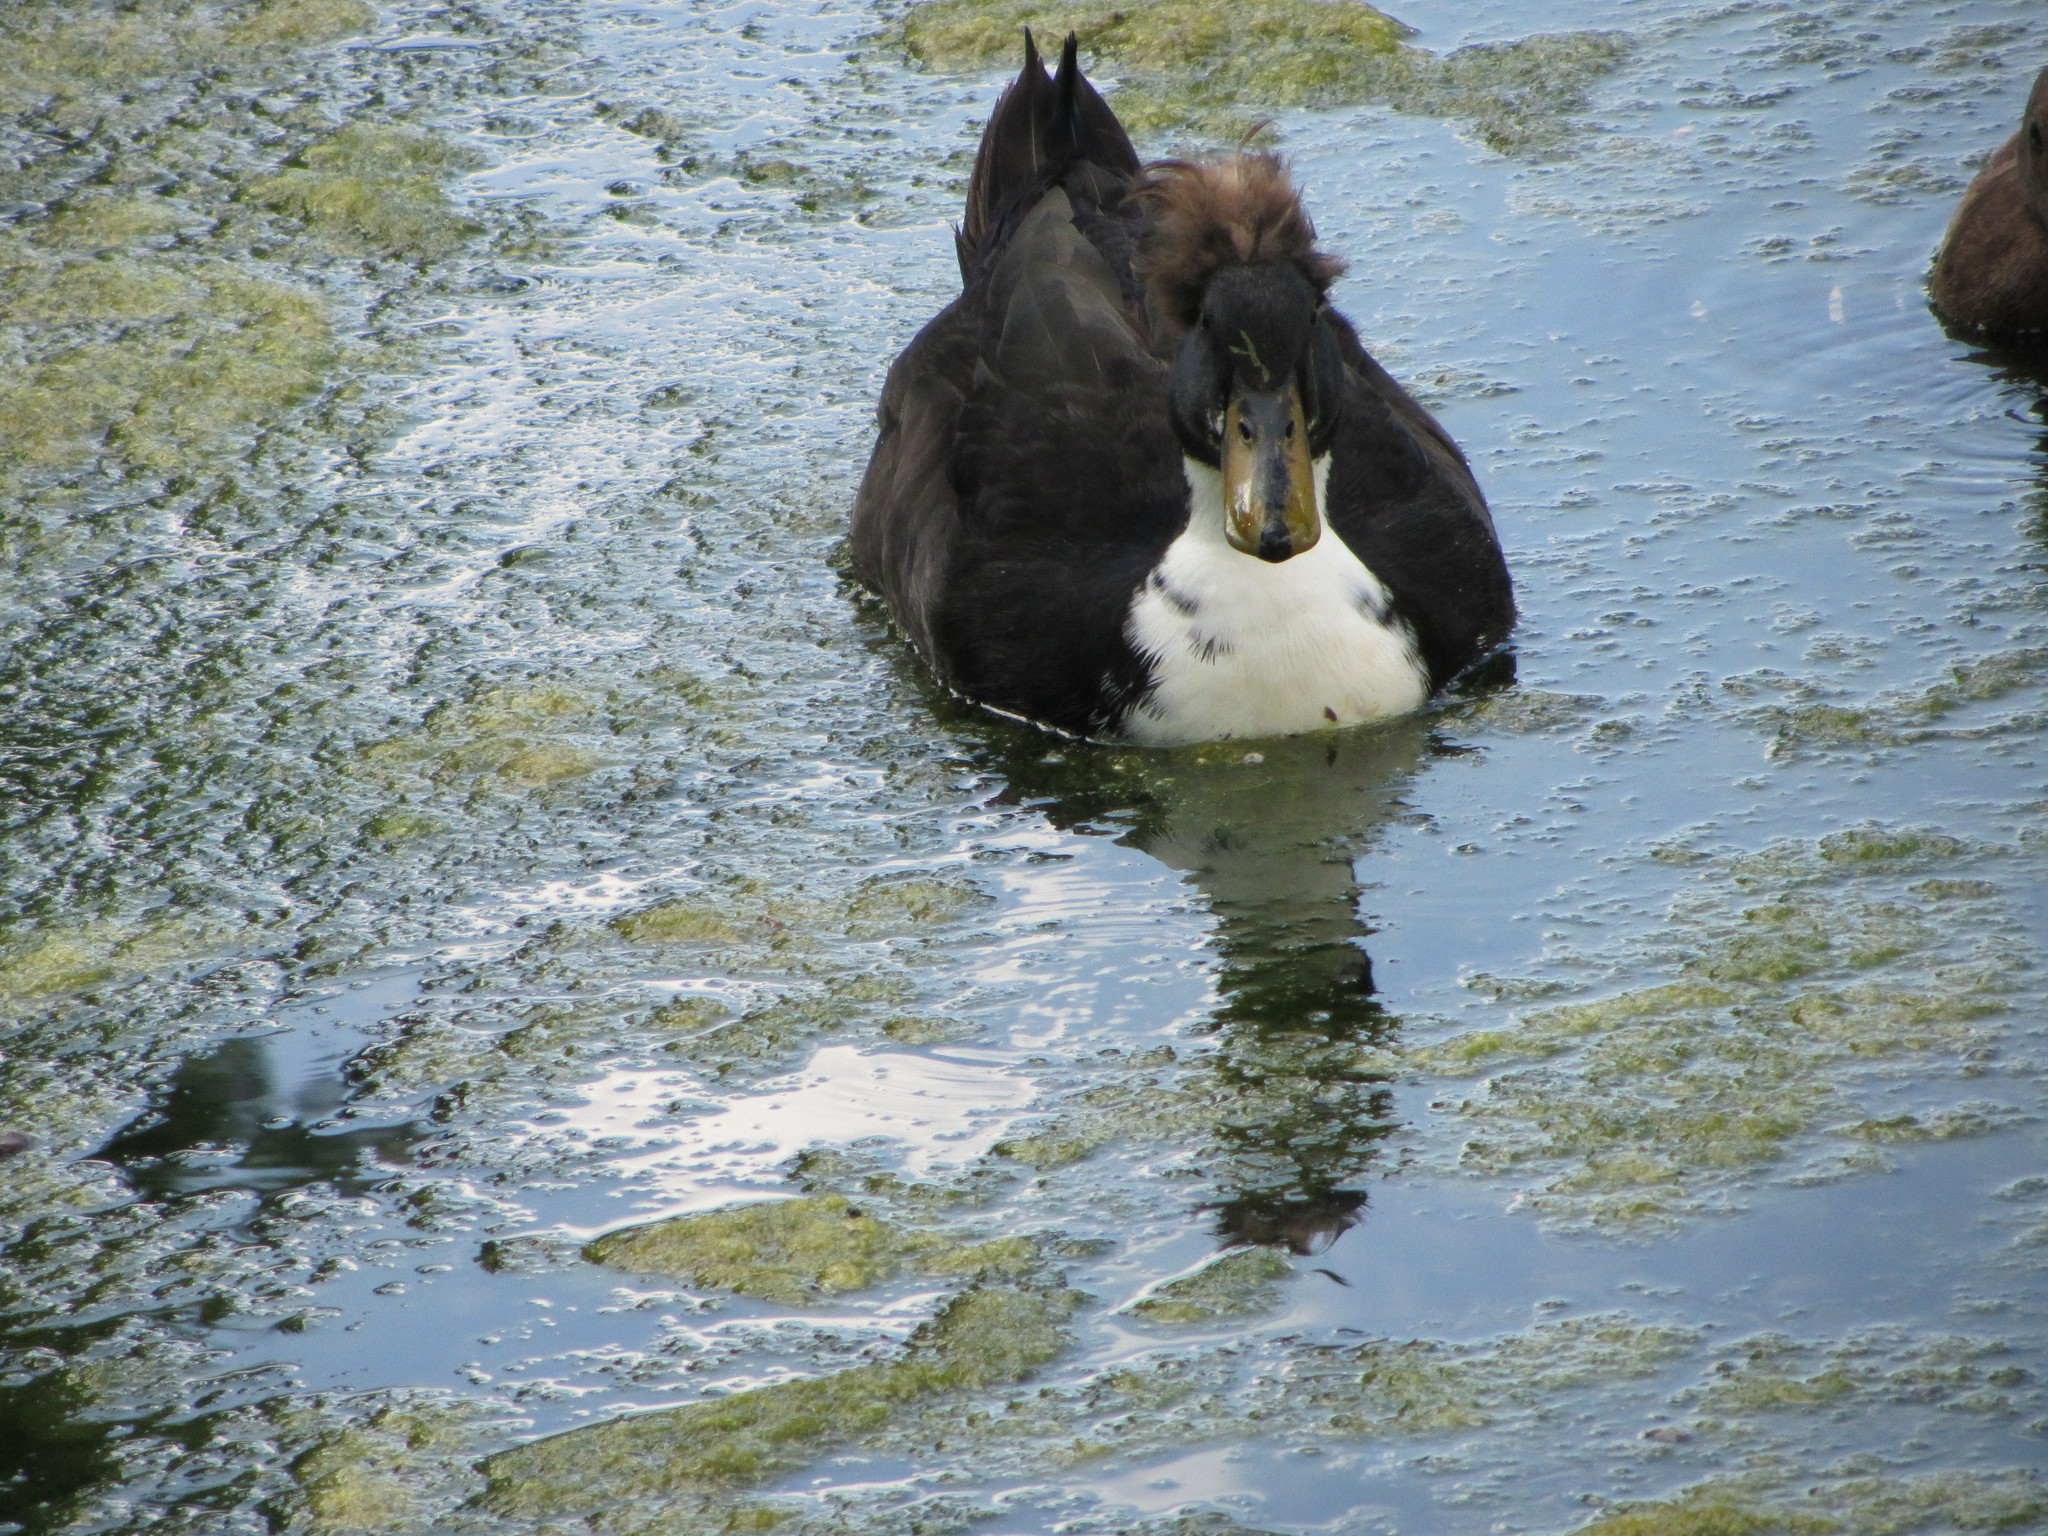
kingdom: Animalia
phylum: Chordata
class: Aves
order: Anseriformes
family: Anatidae
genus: Anas
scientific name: Anas platyrhynchos
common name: Mallard
